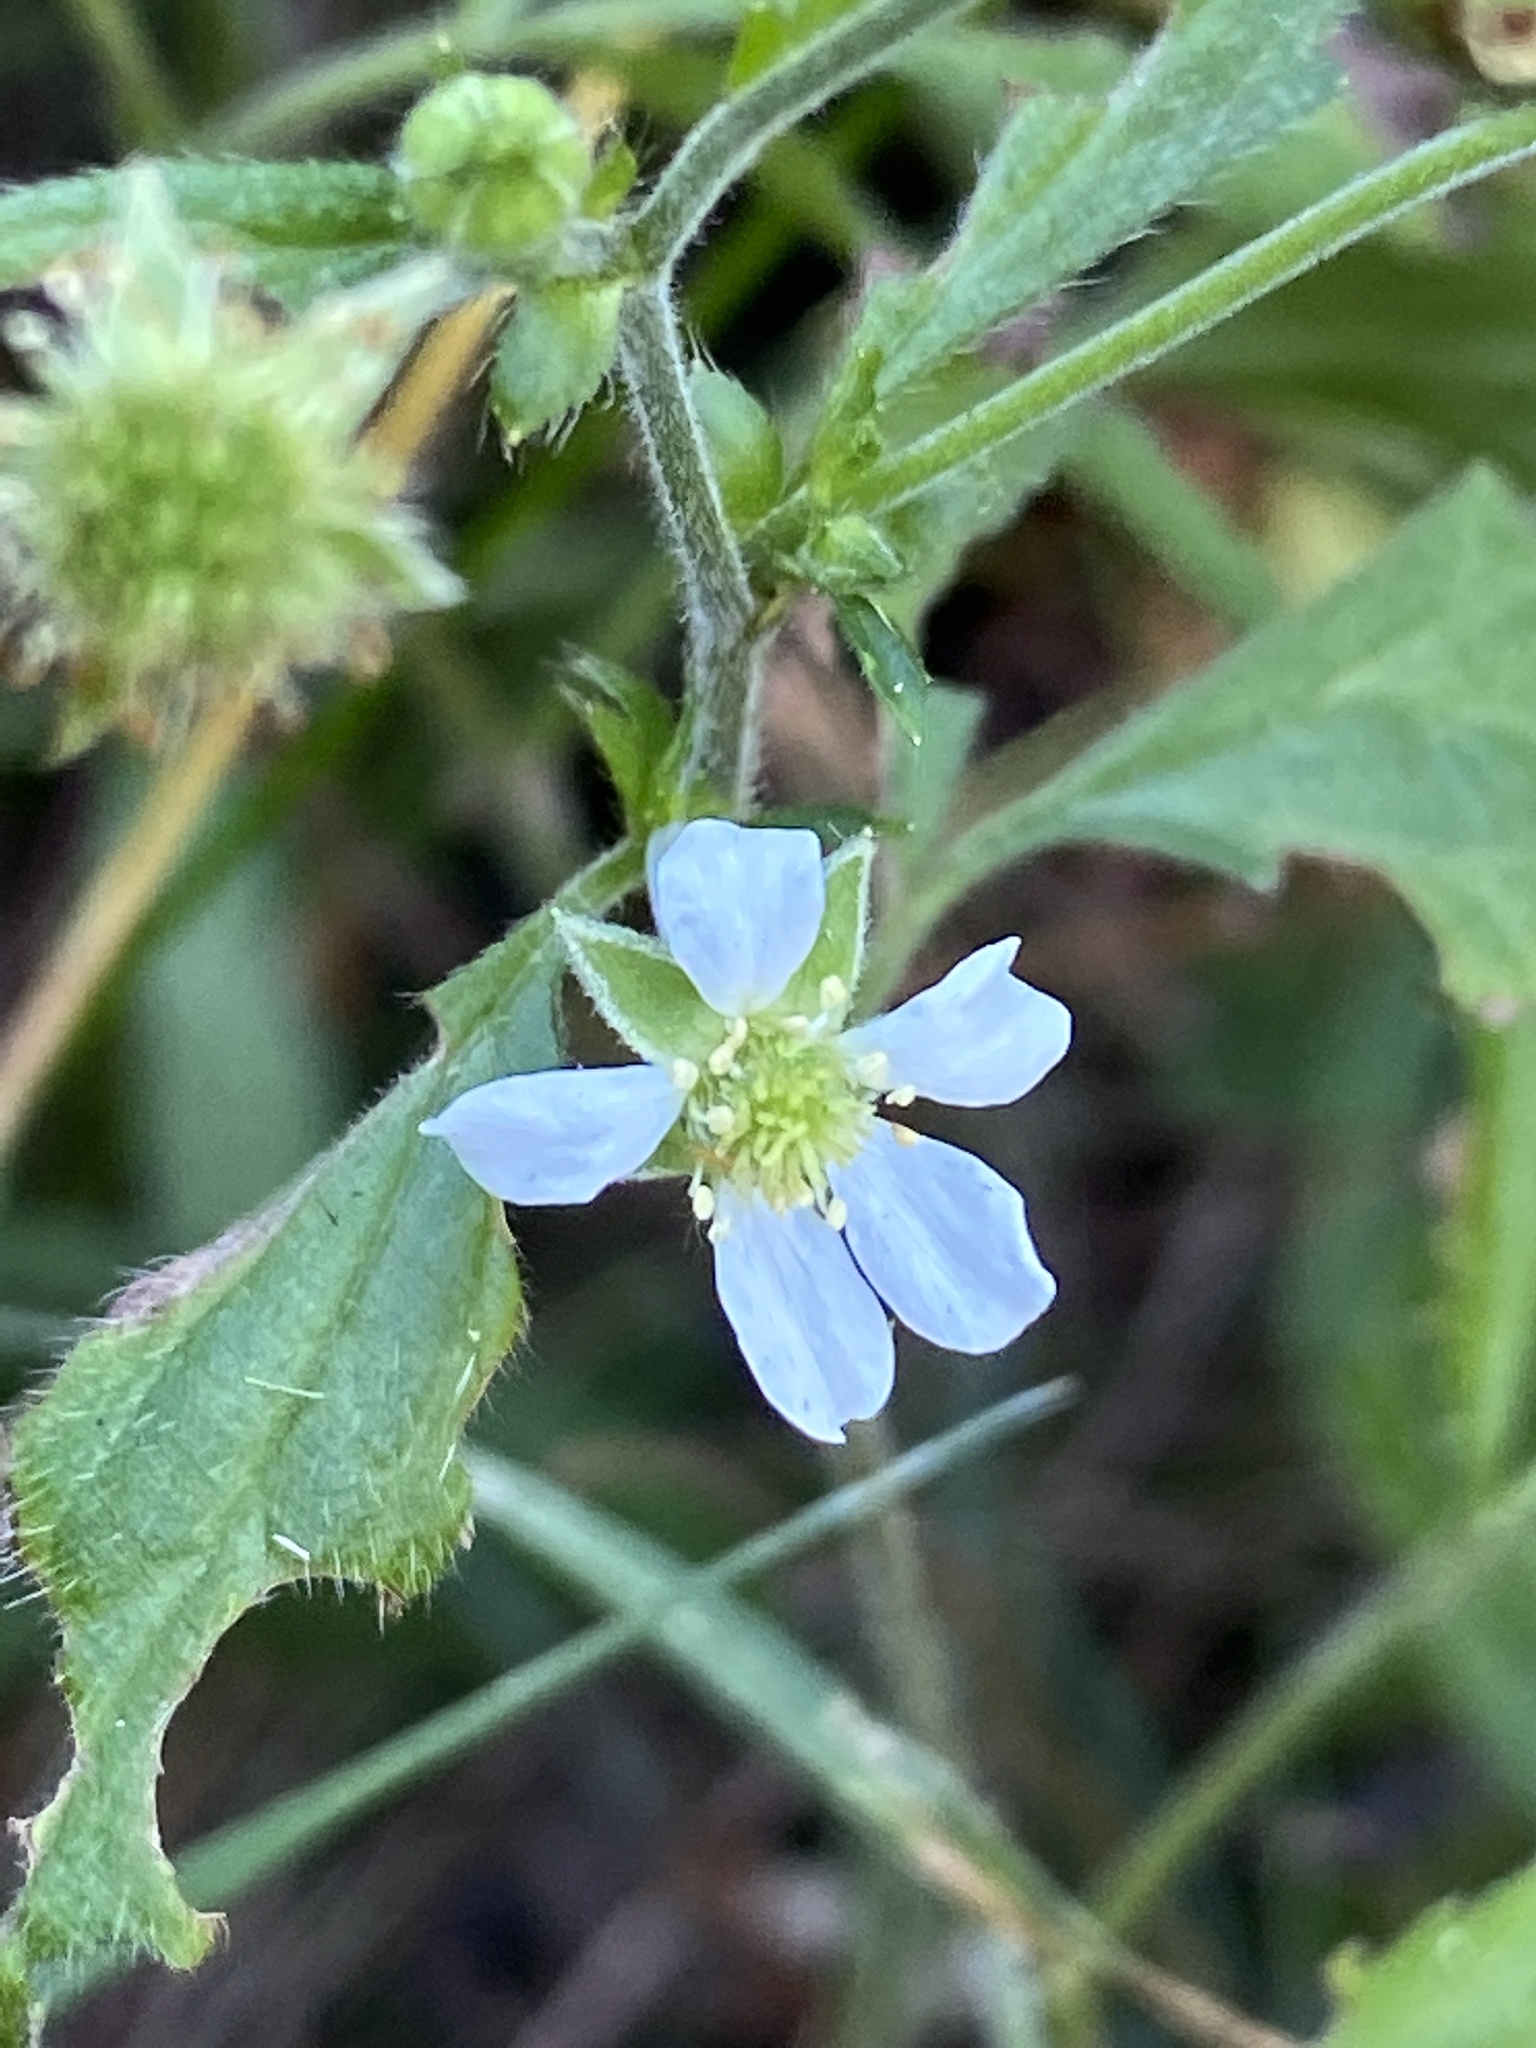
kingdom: Plantae
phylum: Tracheophyta
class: Magnoliopsida
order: Rosales
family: Rosaceae
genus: Geum
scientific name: Geum canadense
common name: White avens
